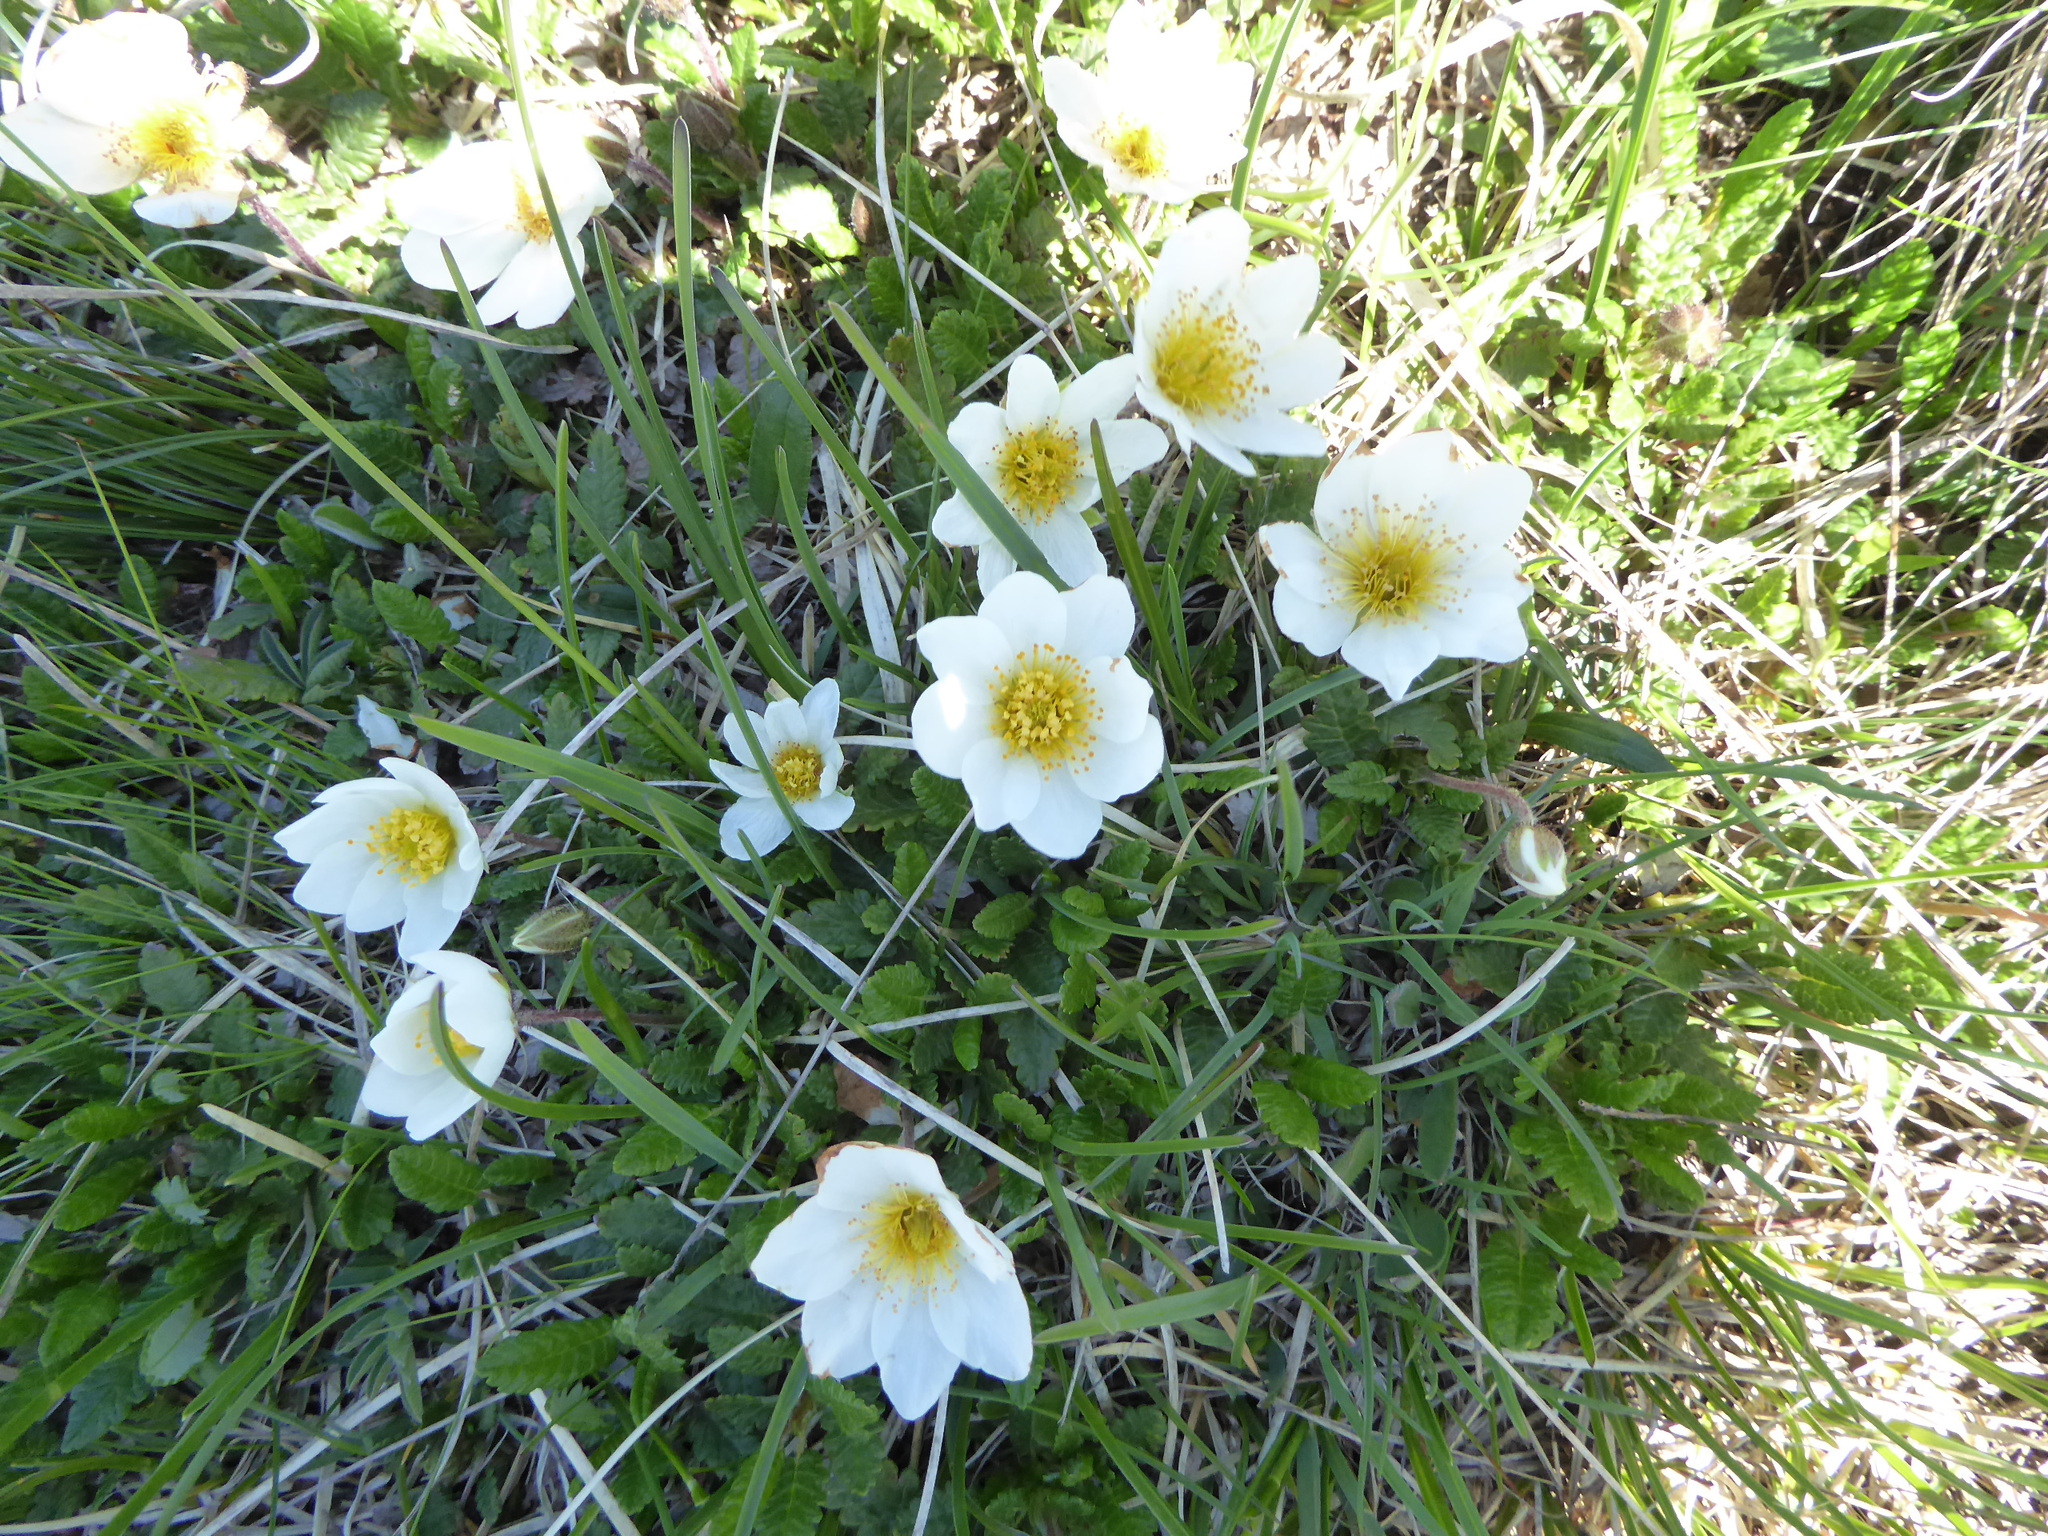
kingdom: Plantae
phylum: Tracheophyta
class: Magnoliopsida
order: Rosales
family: Rosaceae
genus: Dryas
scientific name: Dryas octopetala
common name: Eight-petal mountain-avens
